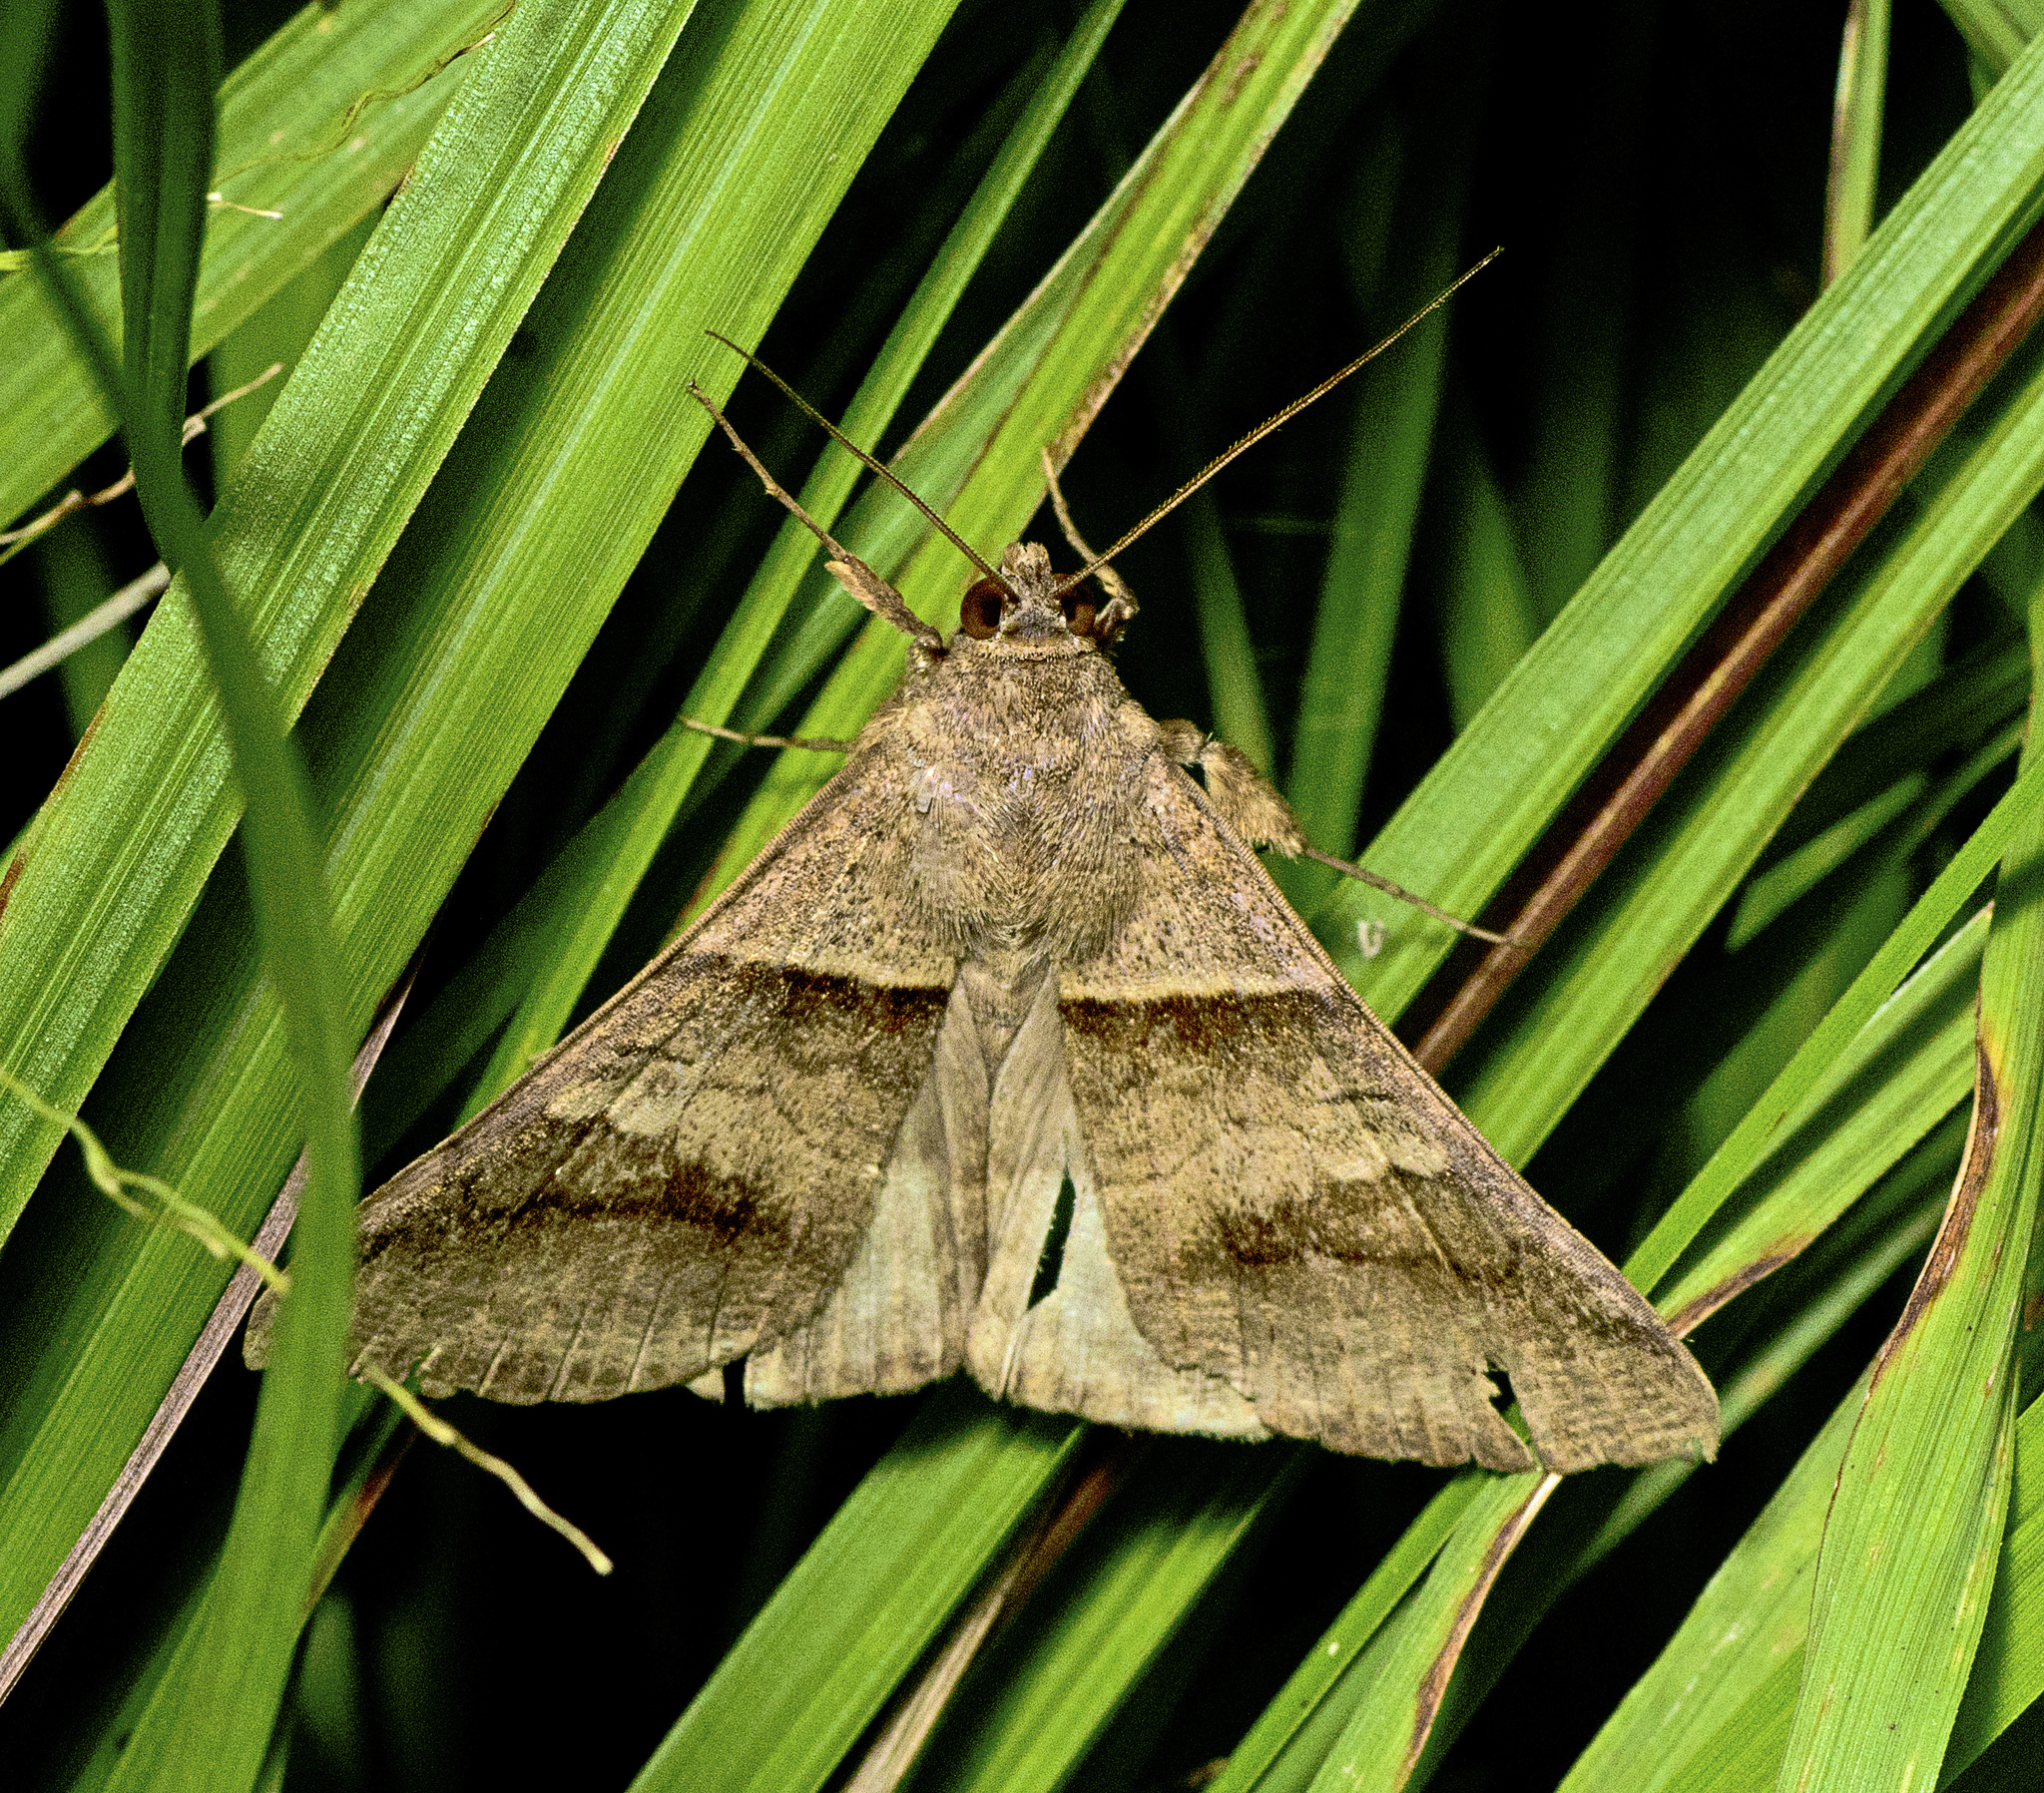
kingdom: Animalia
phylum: Arthropoda
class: Insecta
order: Lepidoptera
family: Erebidae
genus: Mocis
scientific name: Mocis trifasciata
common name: Triple-barred
